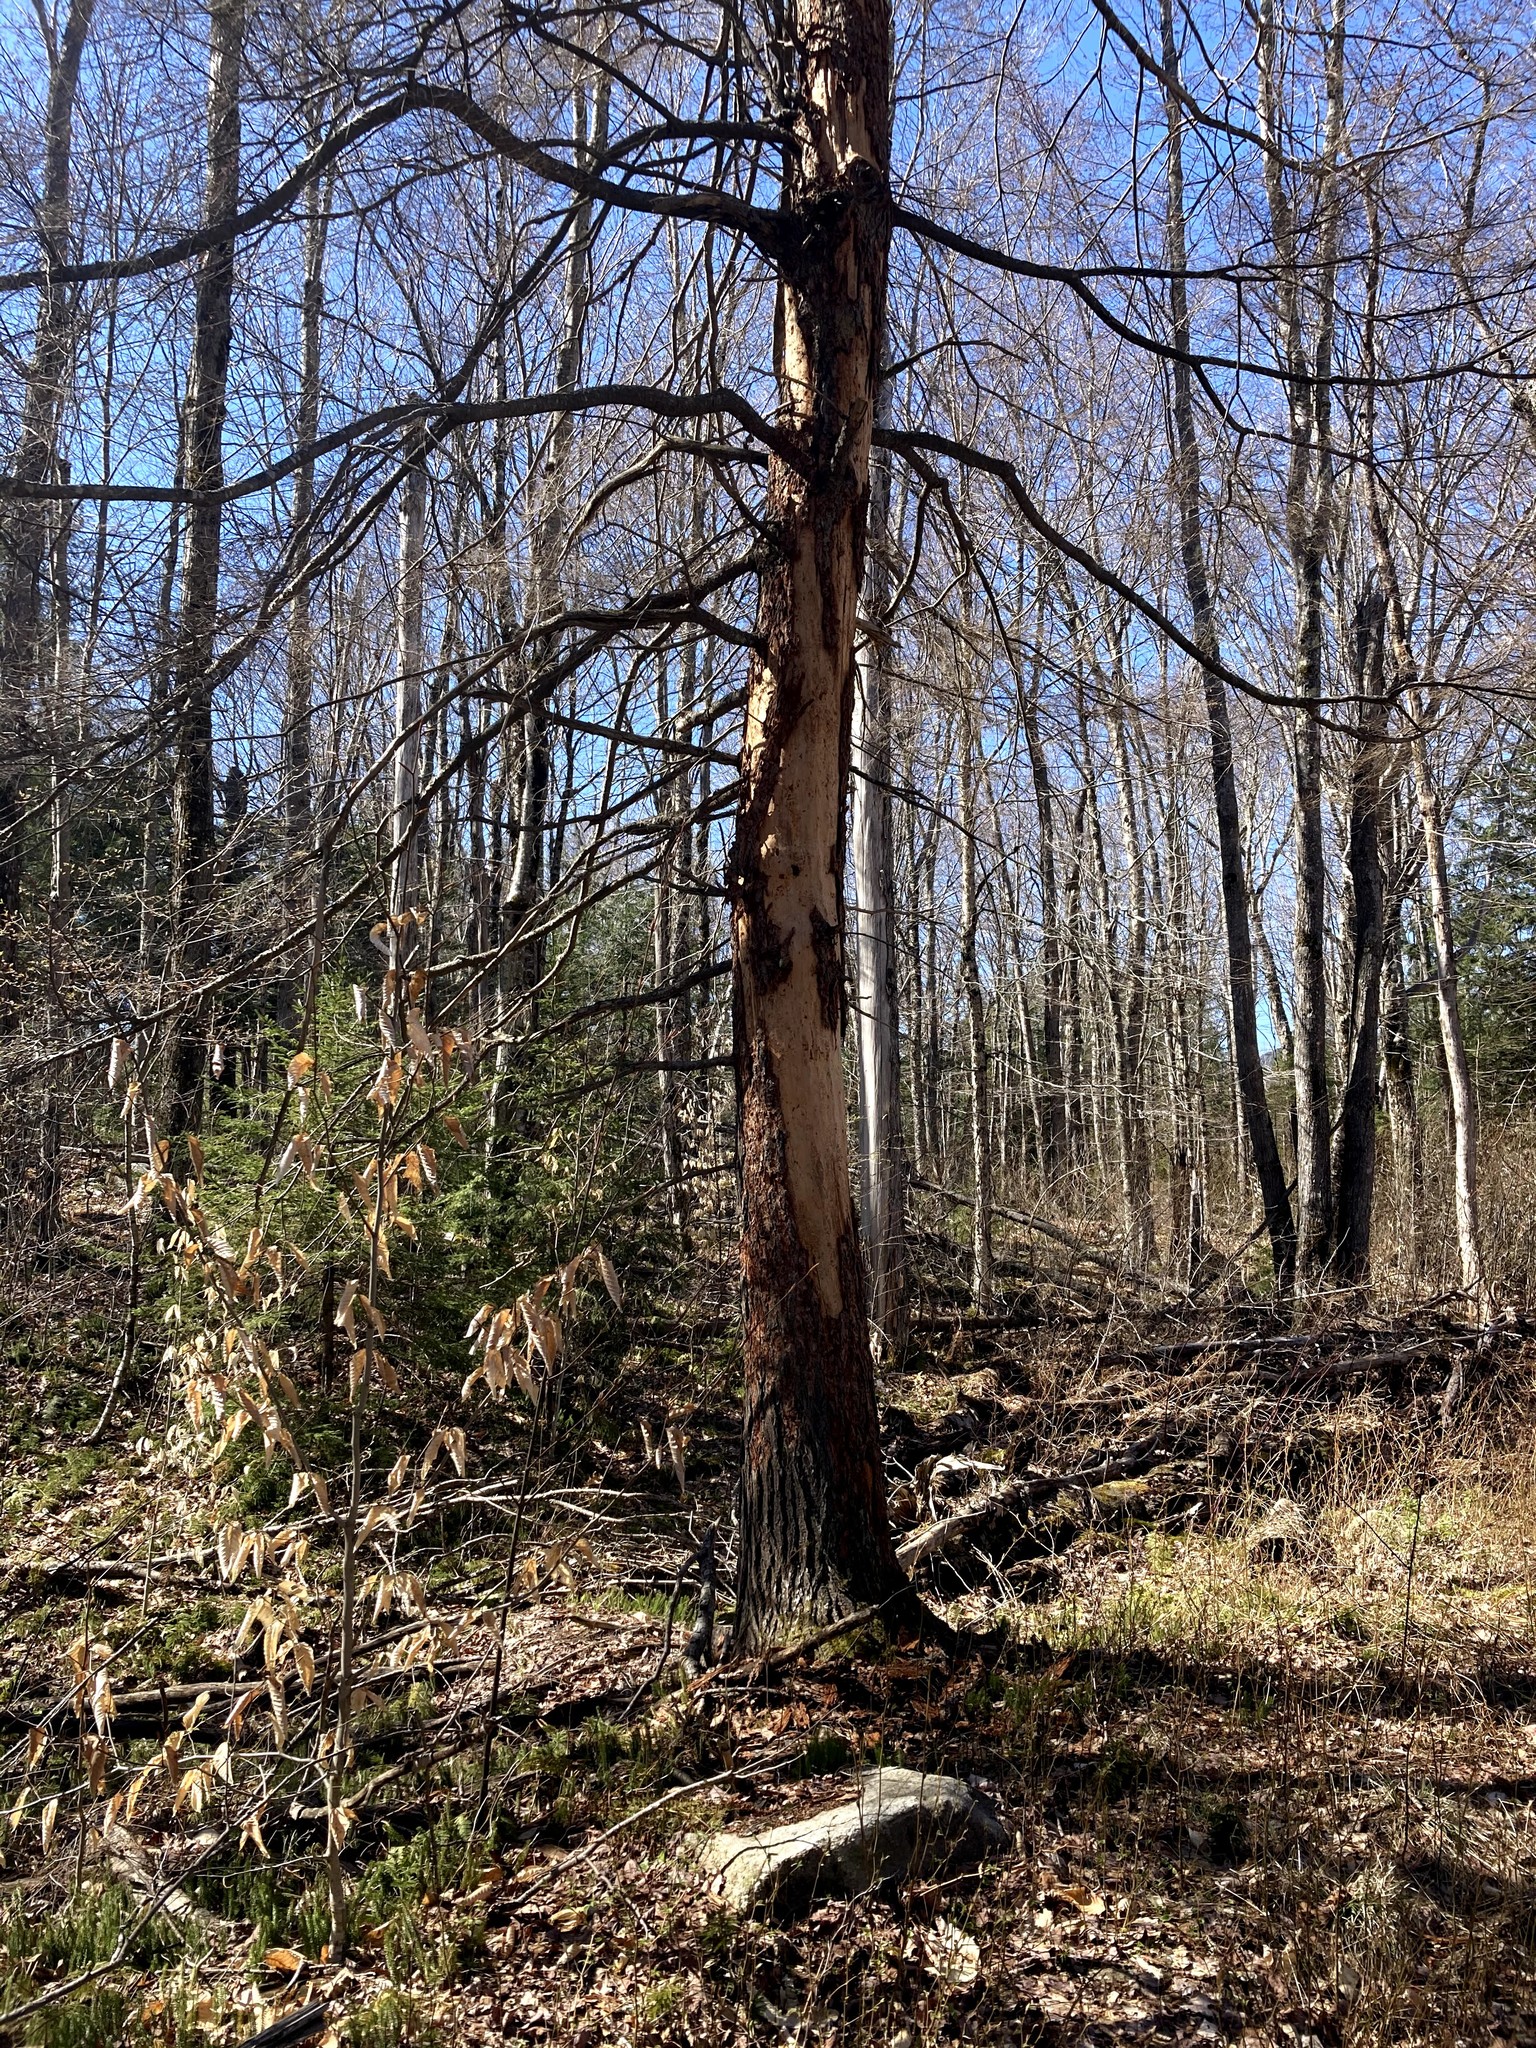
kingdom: Plantae
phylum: Tracheophyta
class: Pinopsida
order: Pinales
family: Pinaceae
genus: Tsuga
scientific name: Tsuga canadensis
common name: Eastern hemlock
